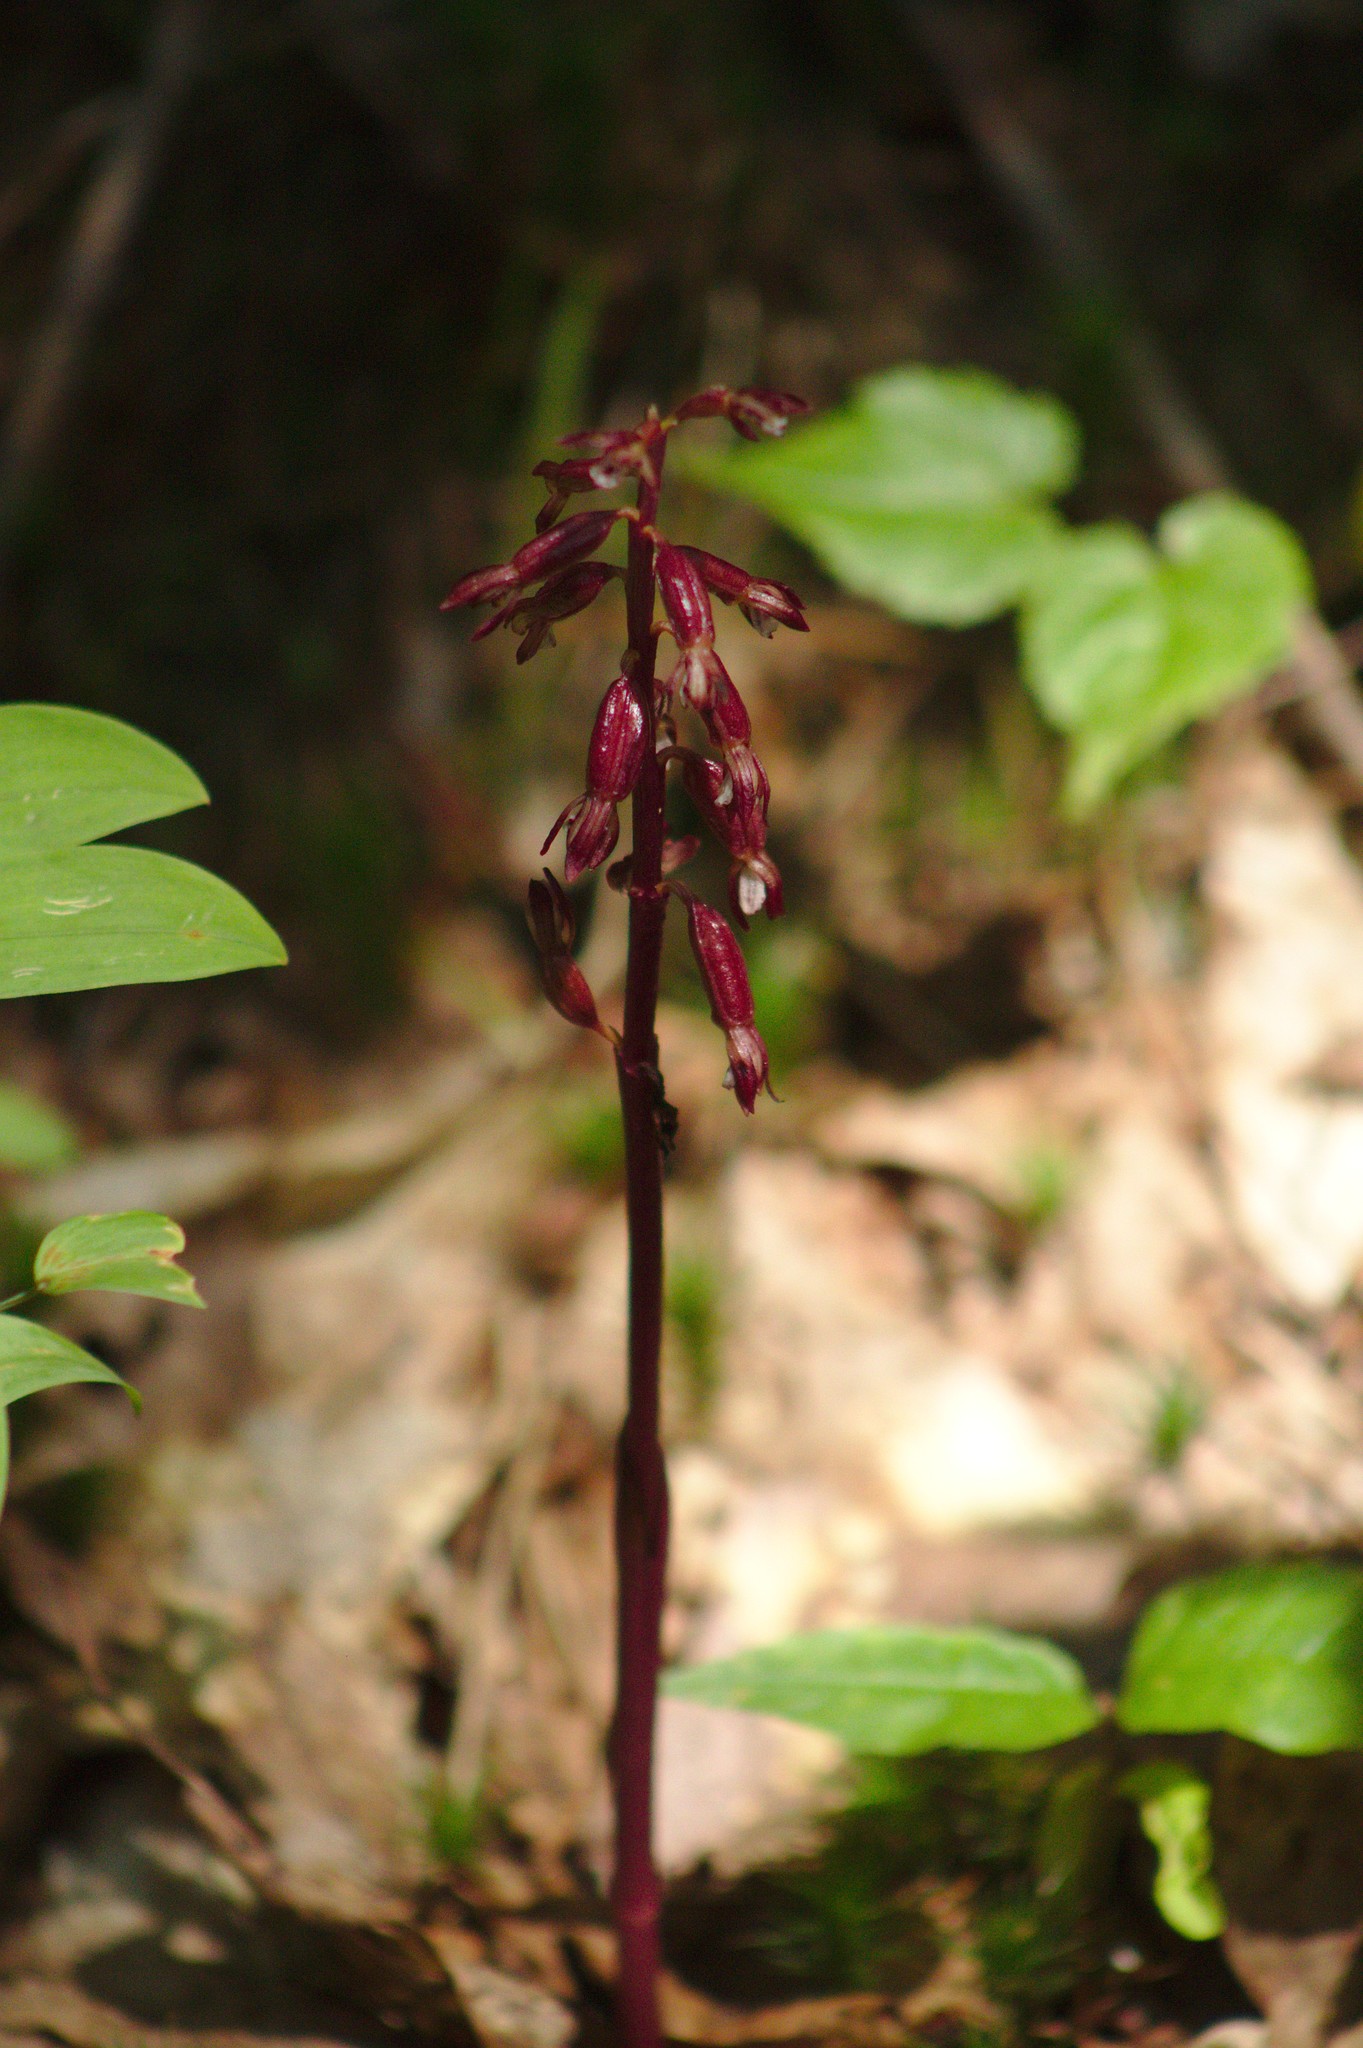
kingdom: Plantae
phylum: Tracheophyta
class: Liliopsida
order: Asparagales
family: Orchidaceae
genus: Corallorhiza
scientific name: Corallorhiza maculata
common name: Spotted coralroot
